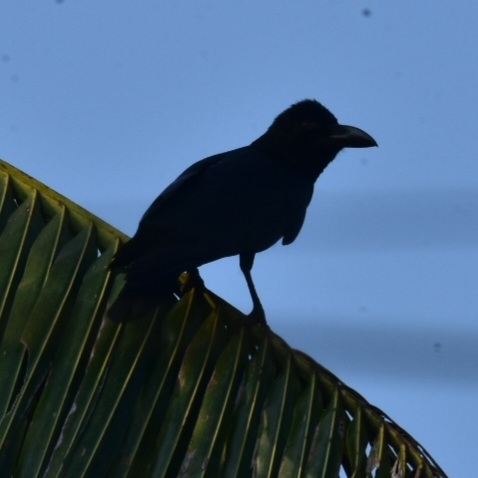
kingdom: Animalia
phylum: Chordata
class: Aves
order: Passeriformes
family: Corvidae
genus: Corvus
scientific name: Corvus macrorhynchos
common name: Large-billed crow
